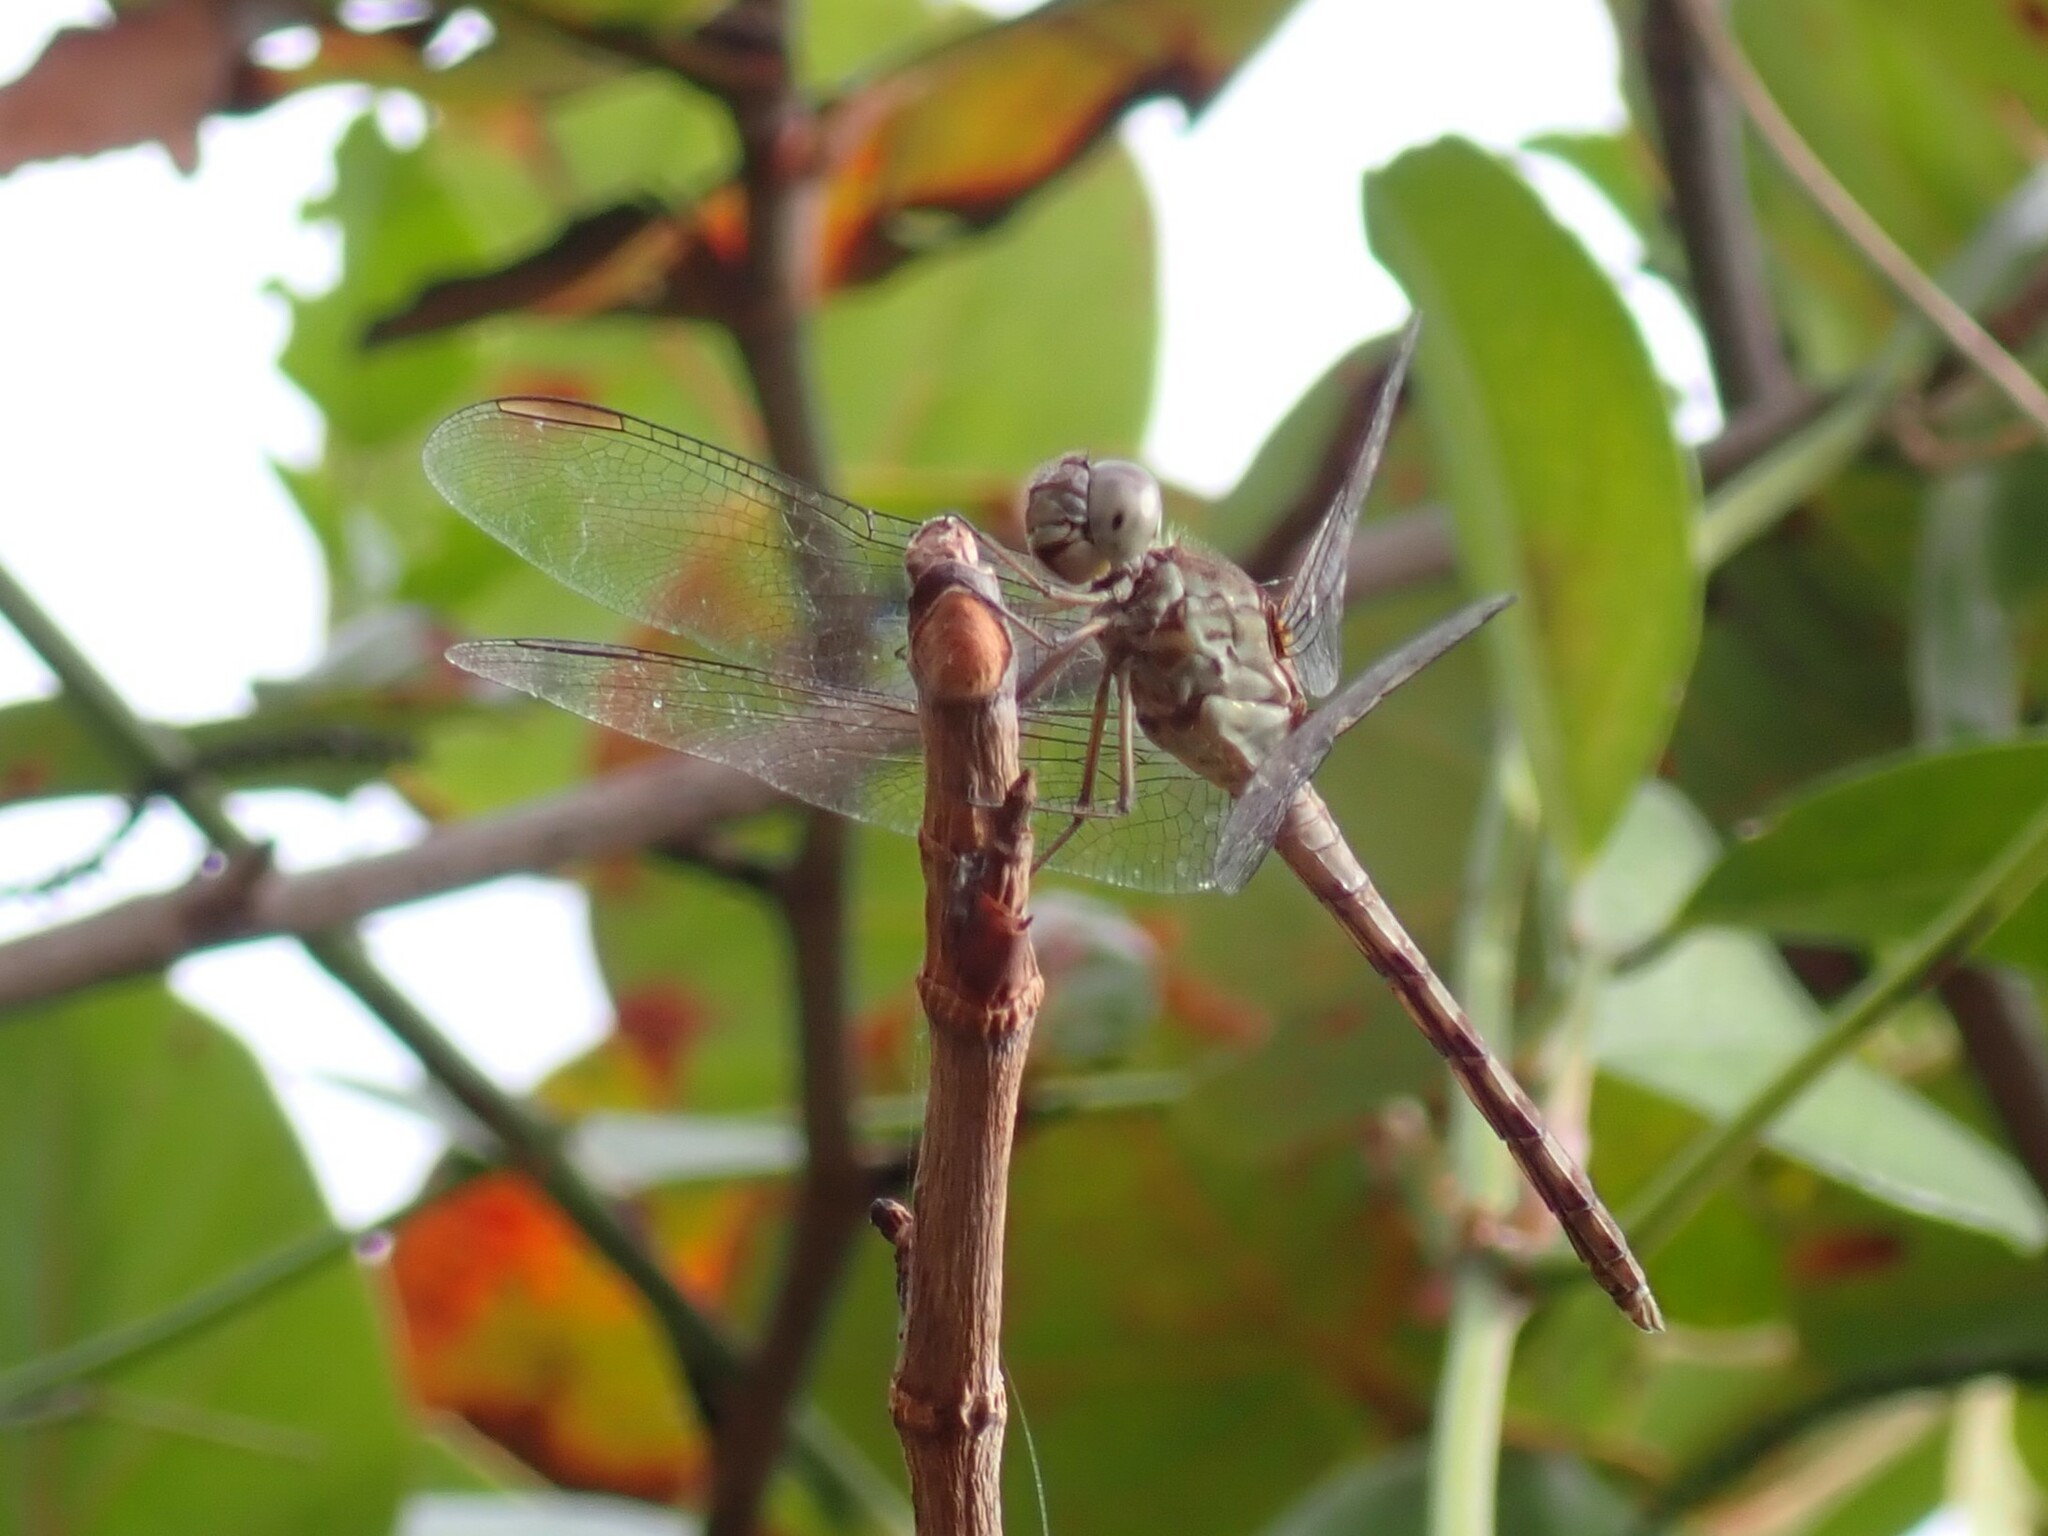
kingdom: Animalia
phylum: Arthropoda
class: Insecta
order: Odonata
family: Libellulidae
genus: Erythrodiplax
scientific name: Erythrodiplax umbrata
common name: Band-winged dragonlet
